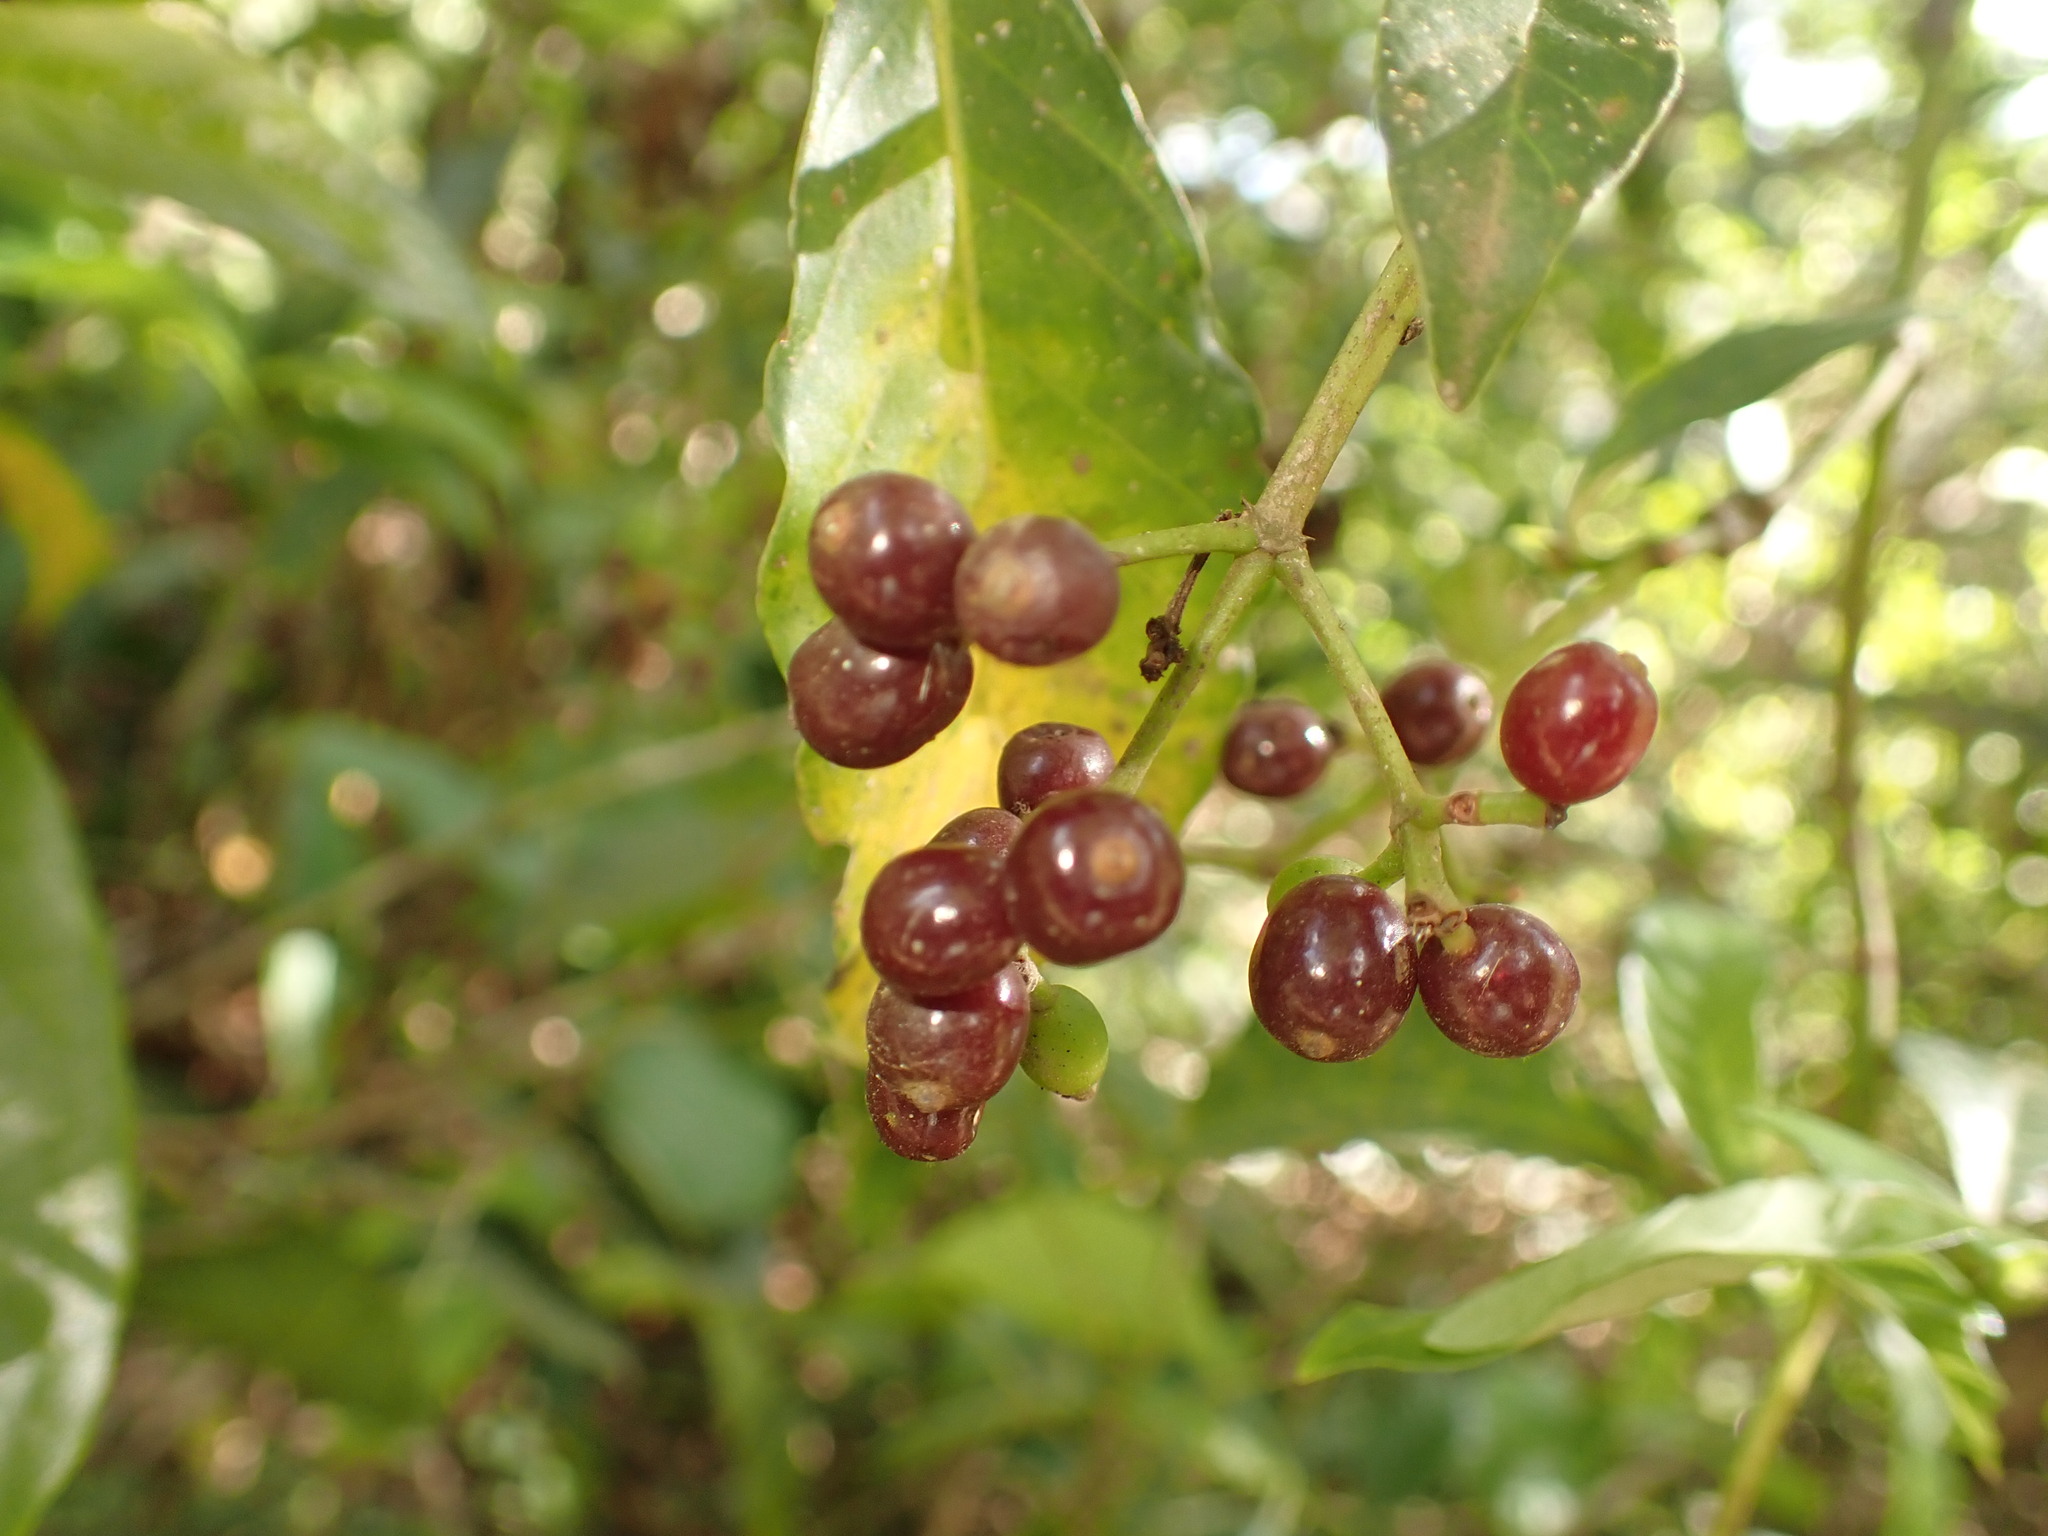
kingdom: Plantae
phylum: Tracheophyta
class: Magnoliopsida
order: Gentianales
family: Rubiaceae
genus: Psychotria
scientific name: Psychotria carthagenensis
